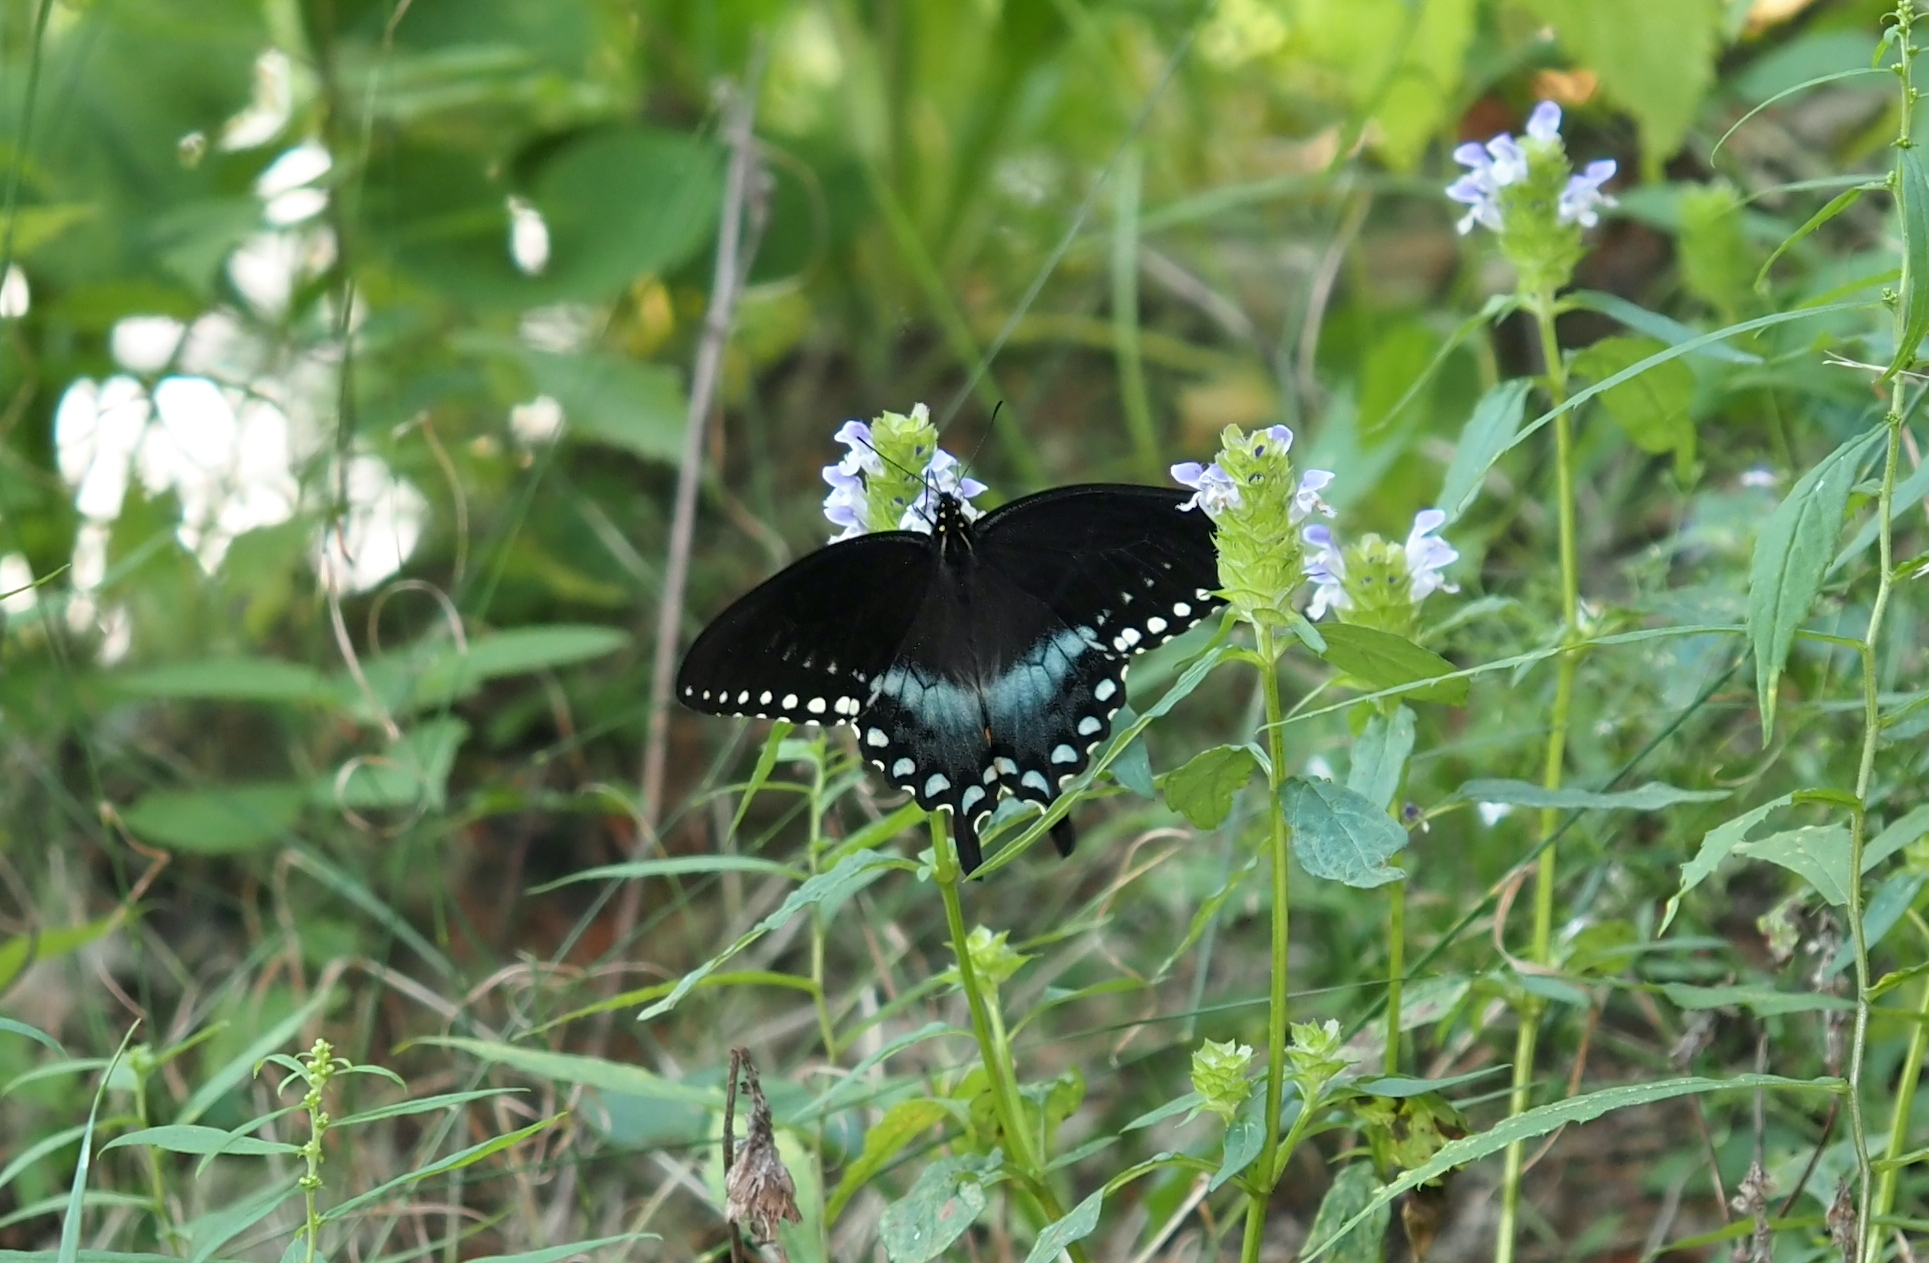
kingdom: Animalia
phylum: Arthropoda
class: Insecta
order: Lepidoptera
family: Papilionidae
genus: Papilio
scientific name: Papilio troilus
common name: Spicebush swallowtail
